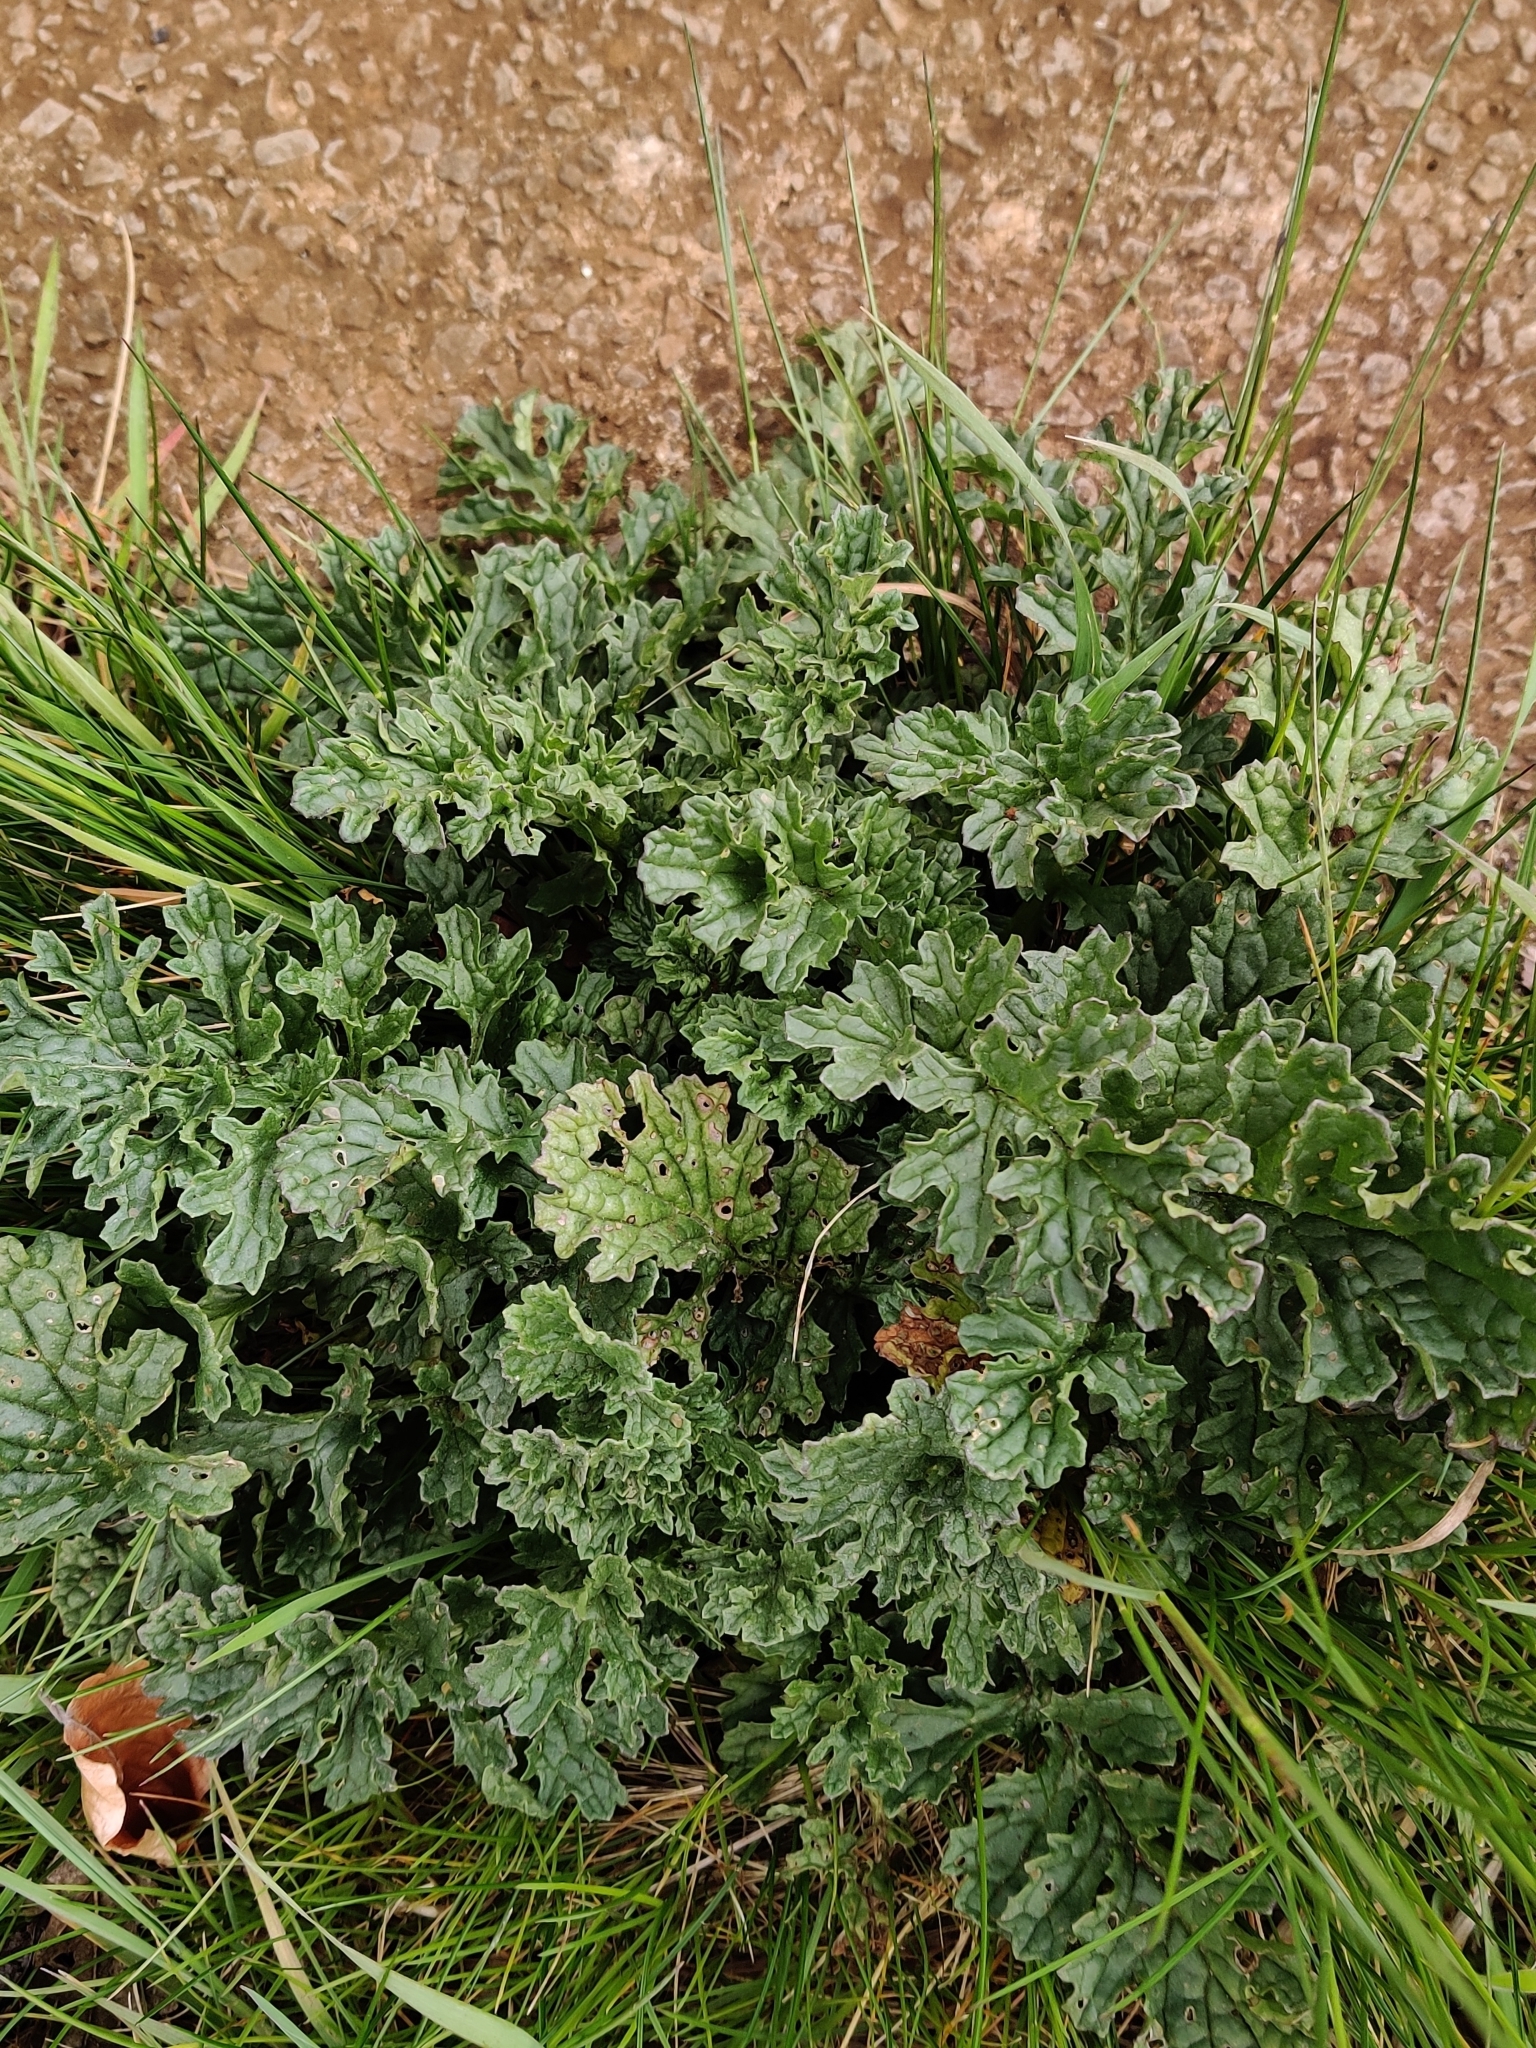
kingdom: Plantae
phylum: Tracheophyta
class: Magnoliopsida
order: Asterales
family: Asteraceae
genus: Jacobaea
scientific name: Jacobaea vulgaris
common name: Stinking willie
